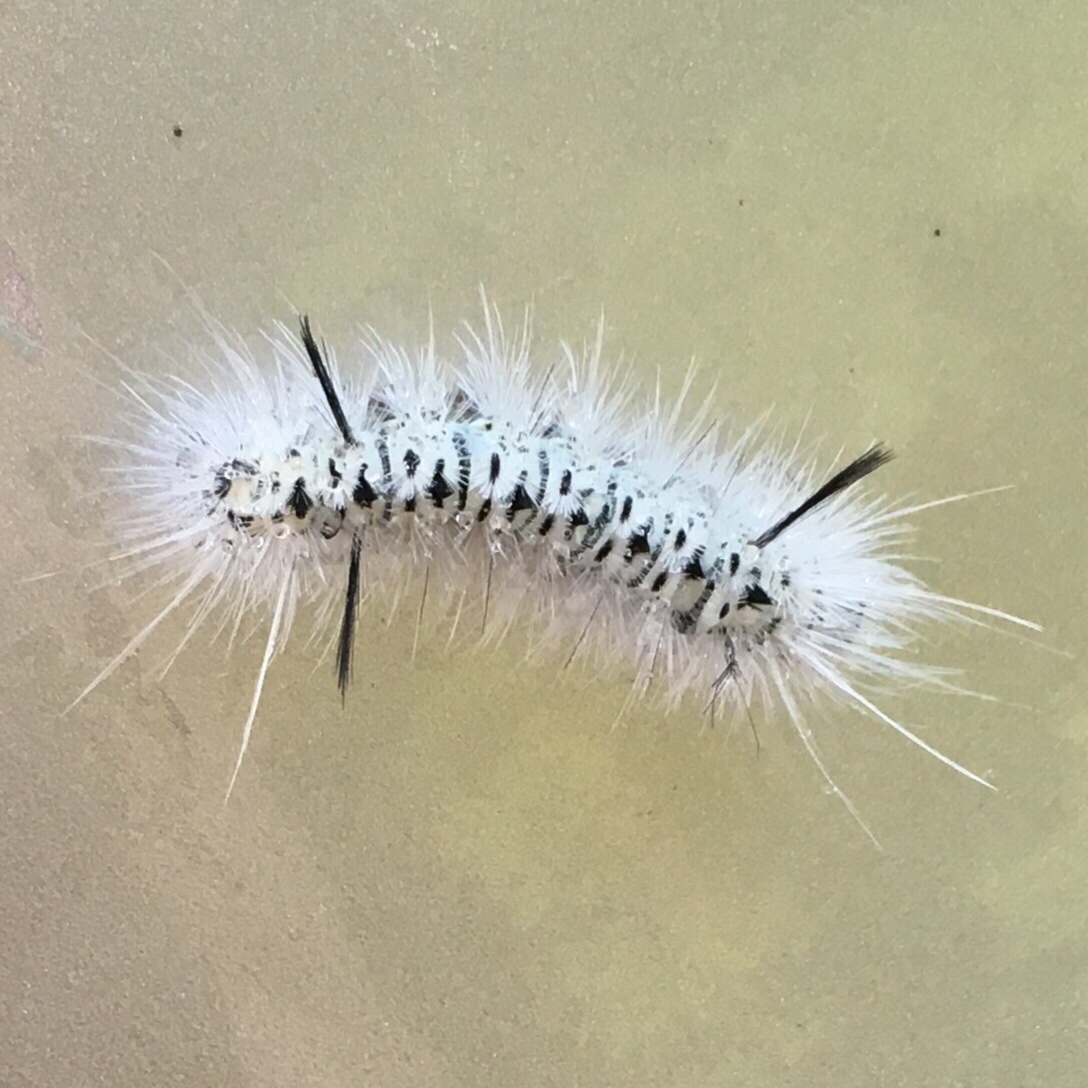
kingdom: Animalia
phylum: Arthropoda
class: Insecta
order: Lepidoptera
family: Erebidae
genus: Lophocampa
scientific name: Lophocampa caryae
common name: Hickory tussock moth
